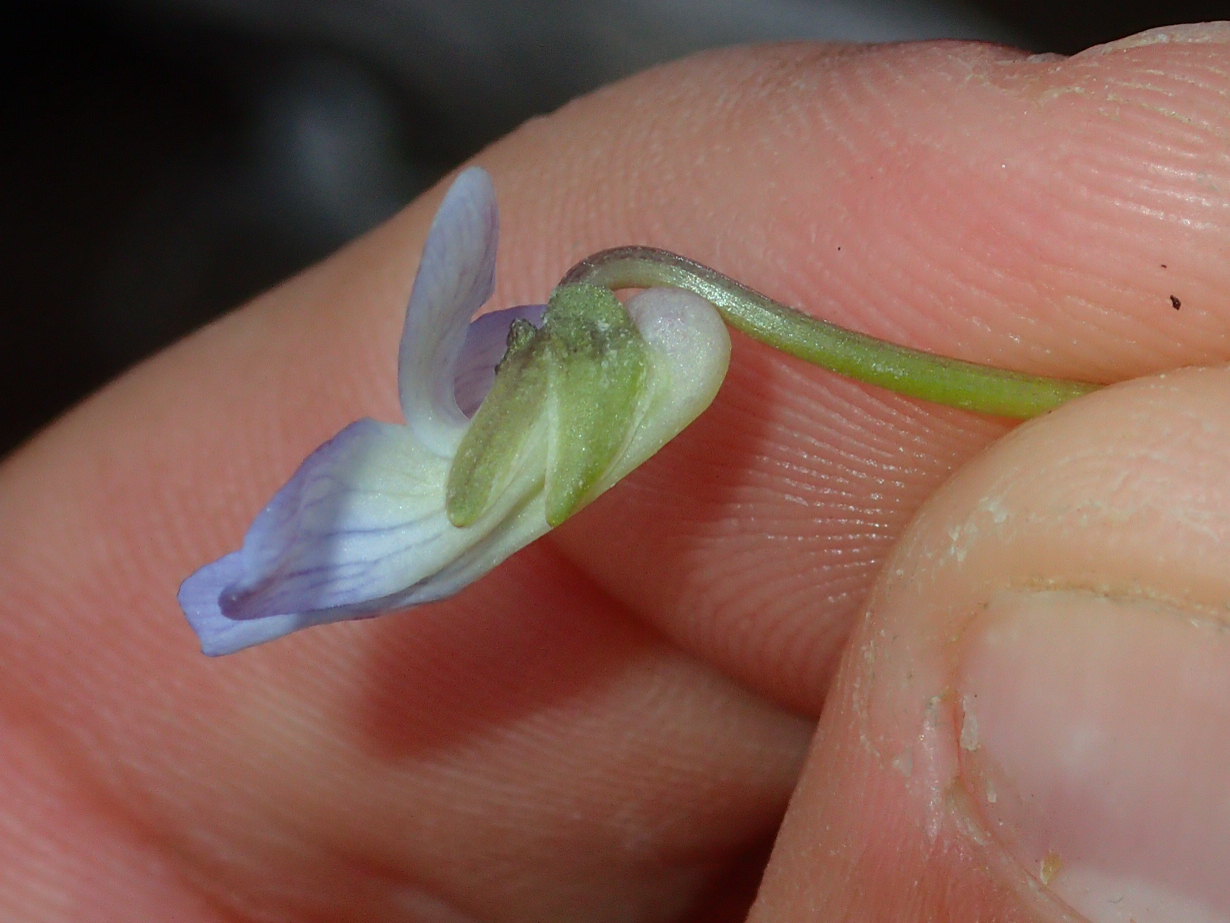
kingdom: Plantae
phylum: Tracheophyta
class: Magnoliopsida
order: Malpighiales
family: Violaceae
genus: Viola
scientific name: Viola sororia
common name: Dooryard violet
